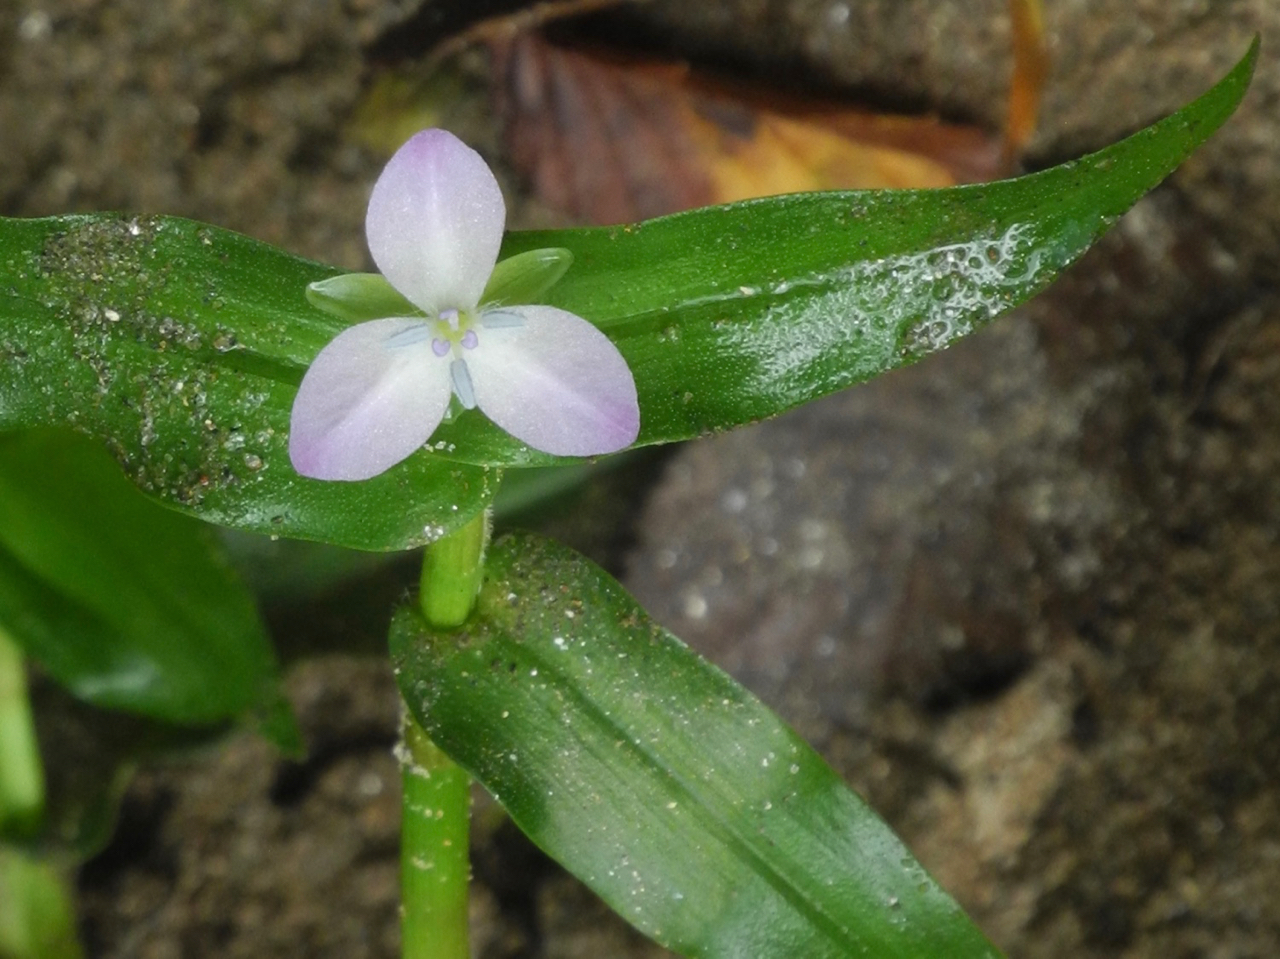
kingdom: Plantae
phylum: Tracheophyta
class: Liliopsida
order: Commelinales
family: Commelinaceae
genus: Murdannia
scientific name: Murdannia keisak
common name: Wartremoving herb
